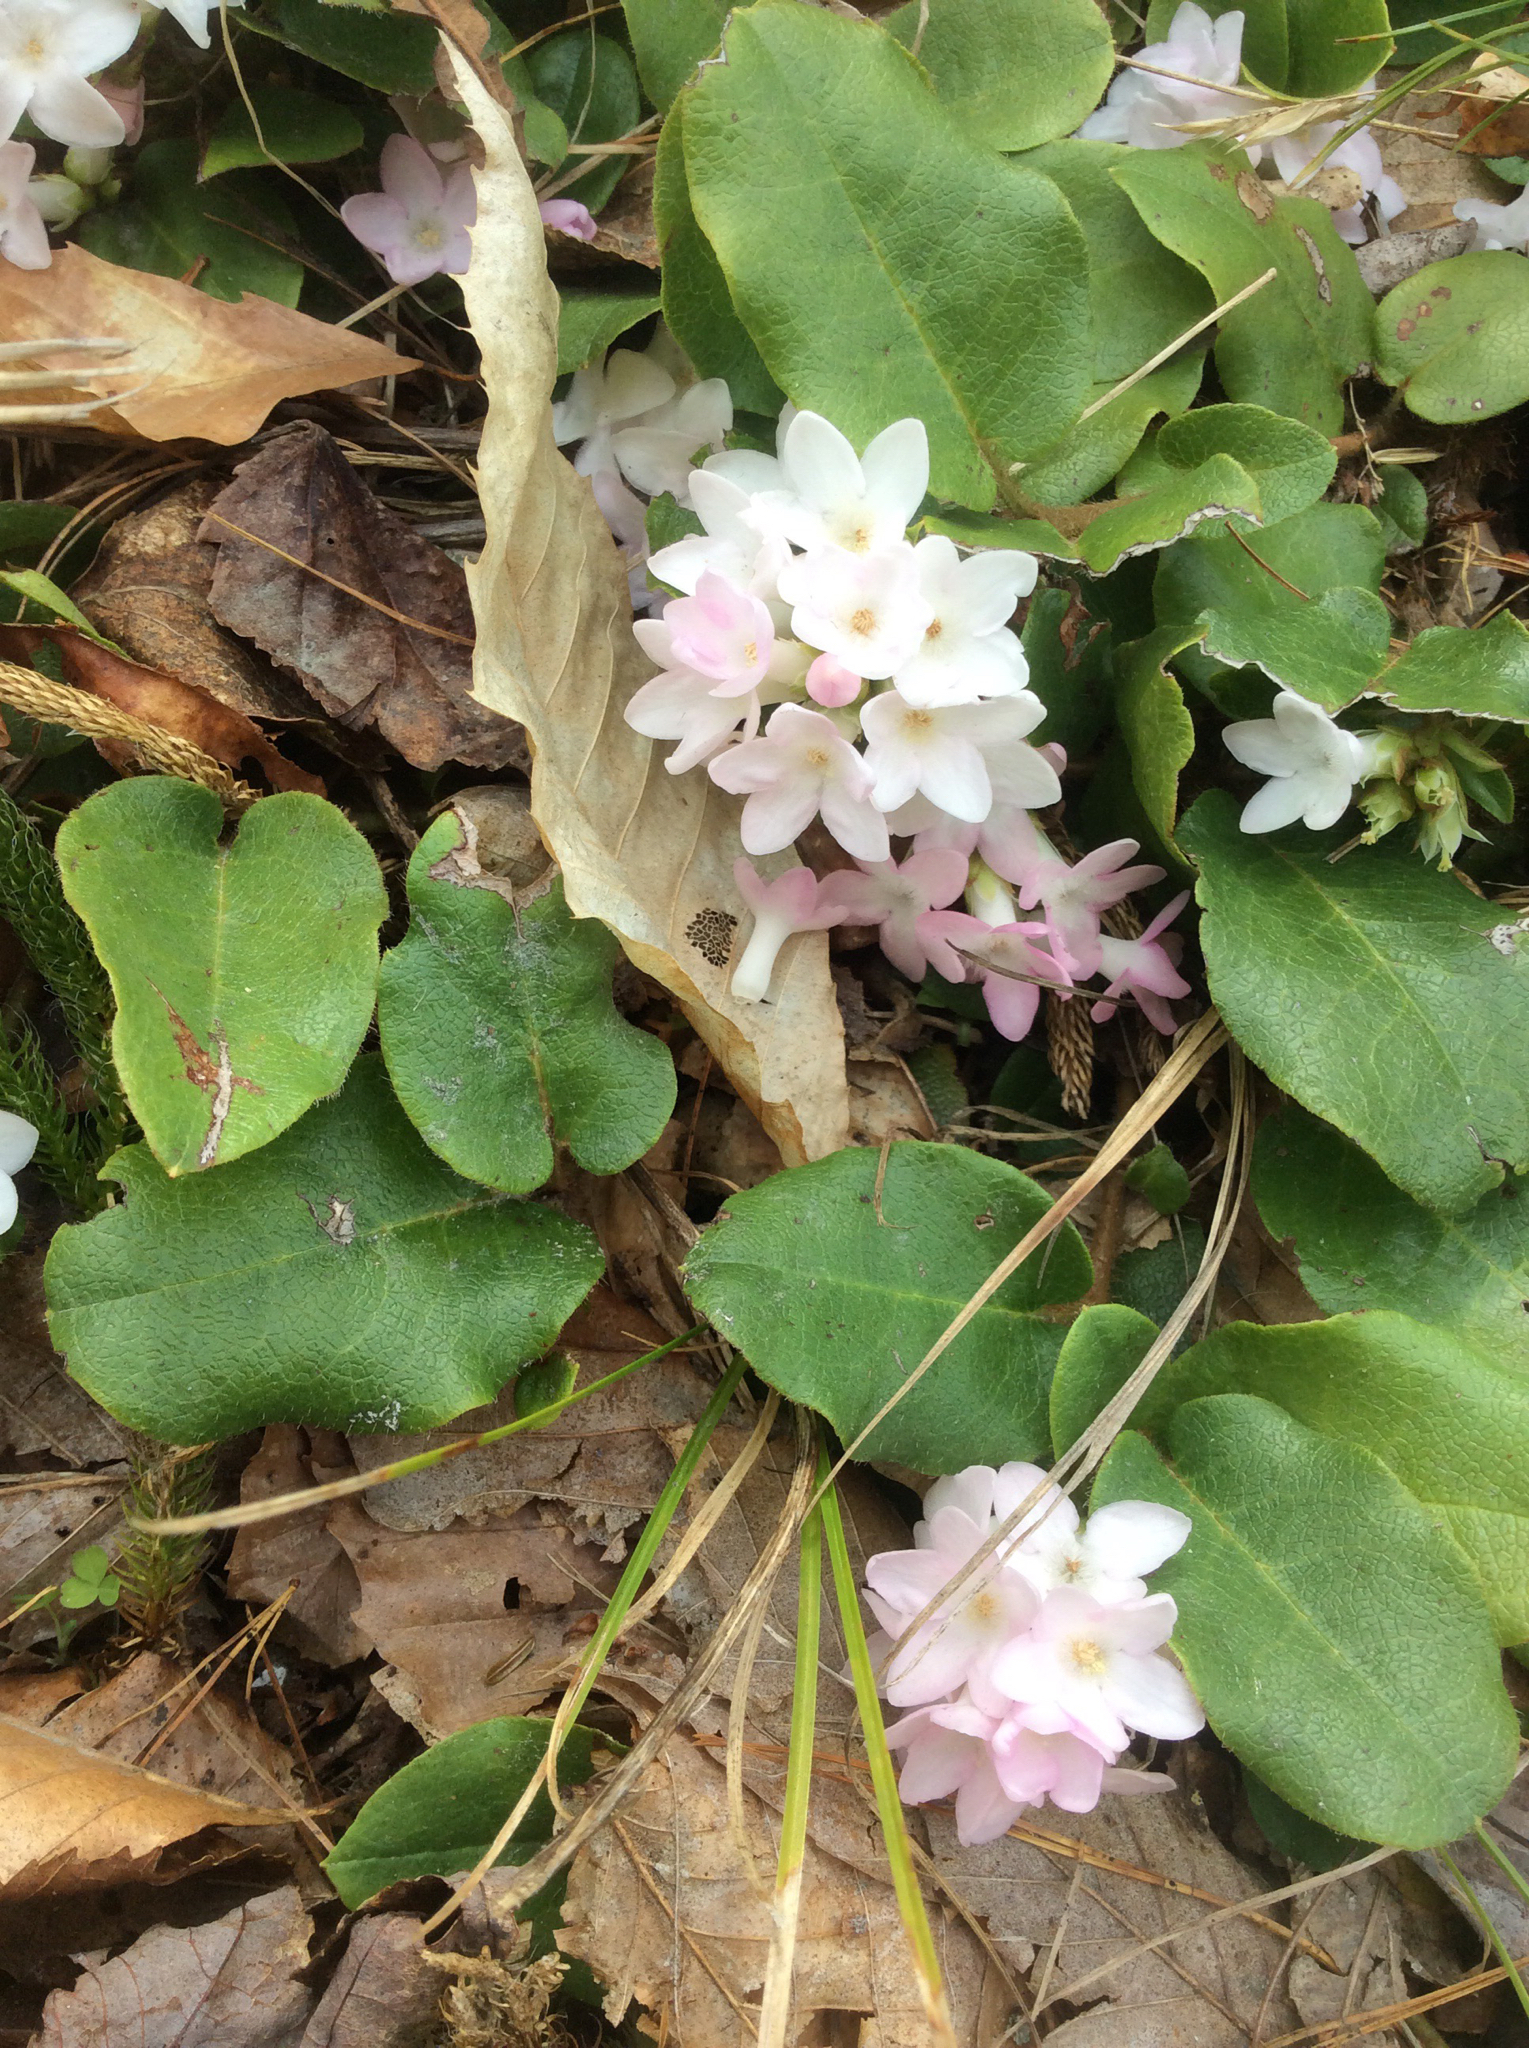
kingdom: Plantae
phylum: Tracheophyta
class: Magnoliopsida
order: Ericales
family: Ericaceae
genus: Epigaea
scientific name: Epigaea repens
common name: Gravelroot
